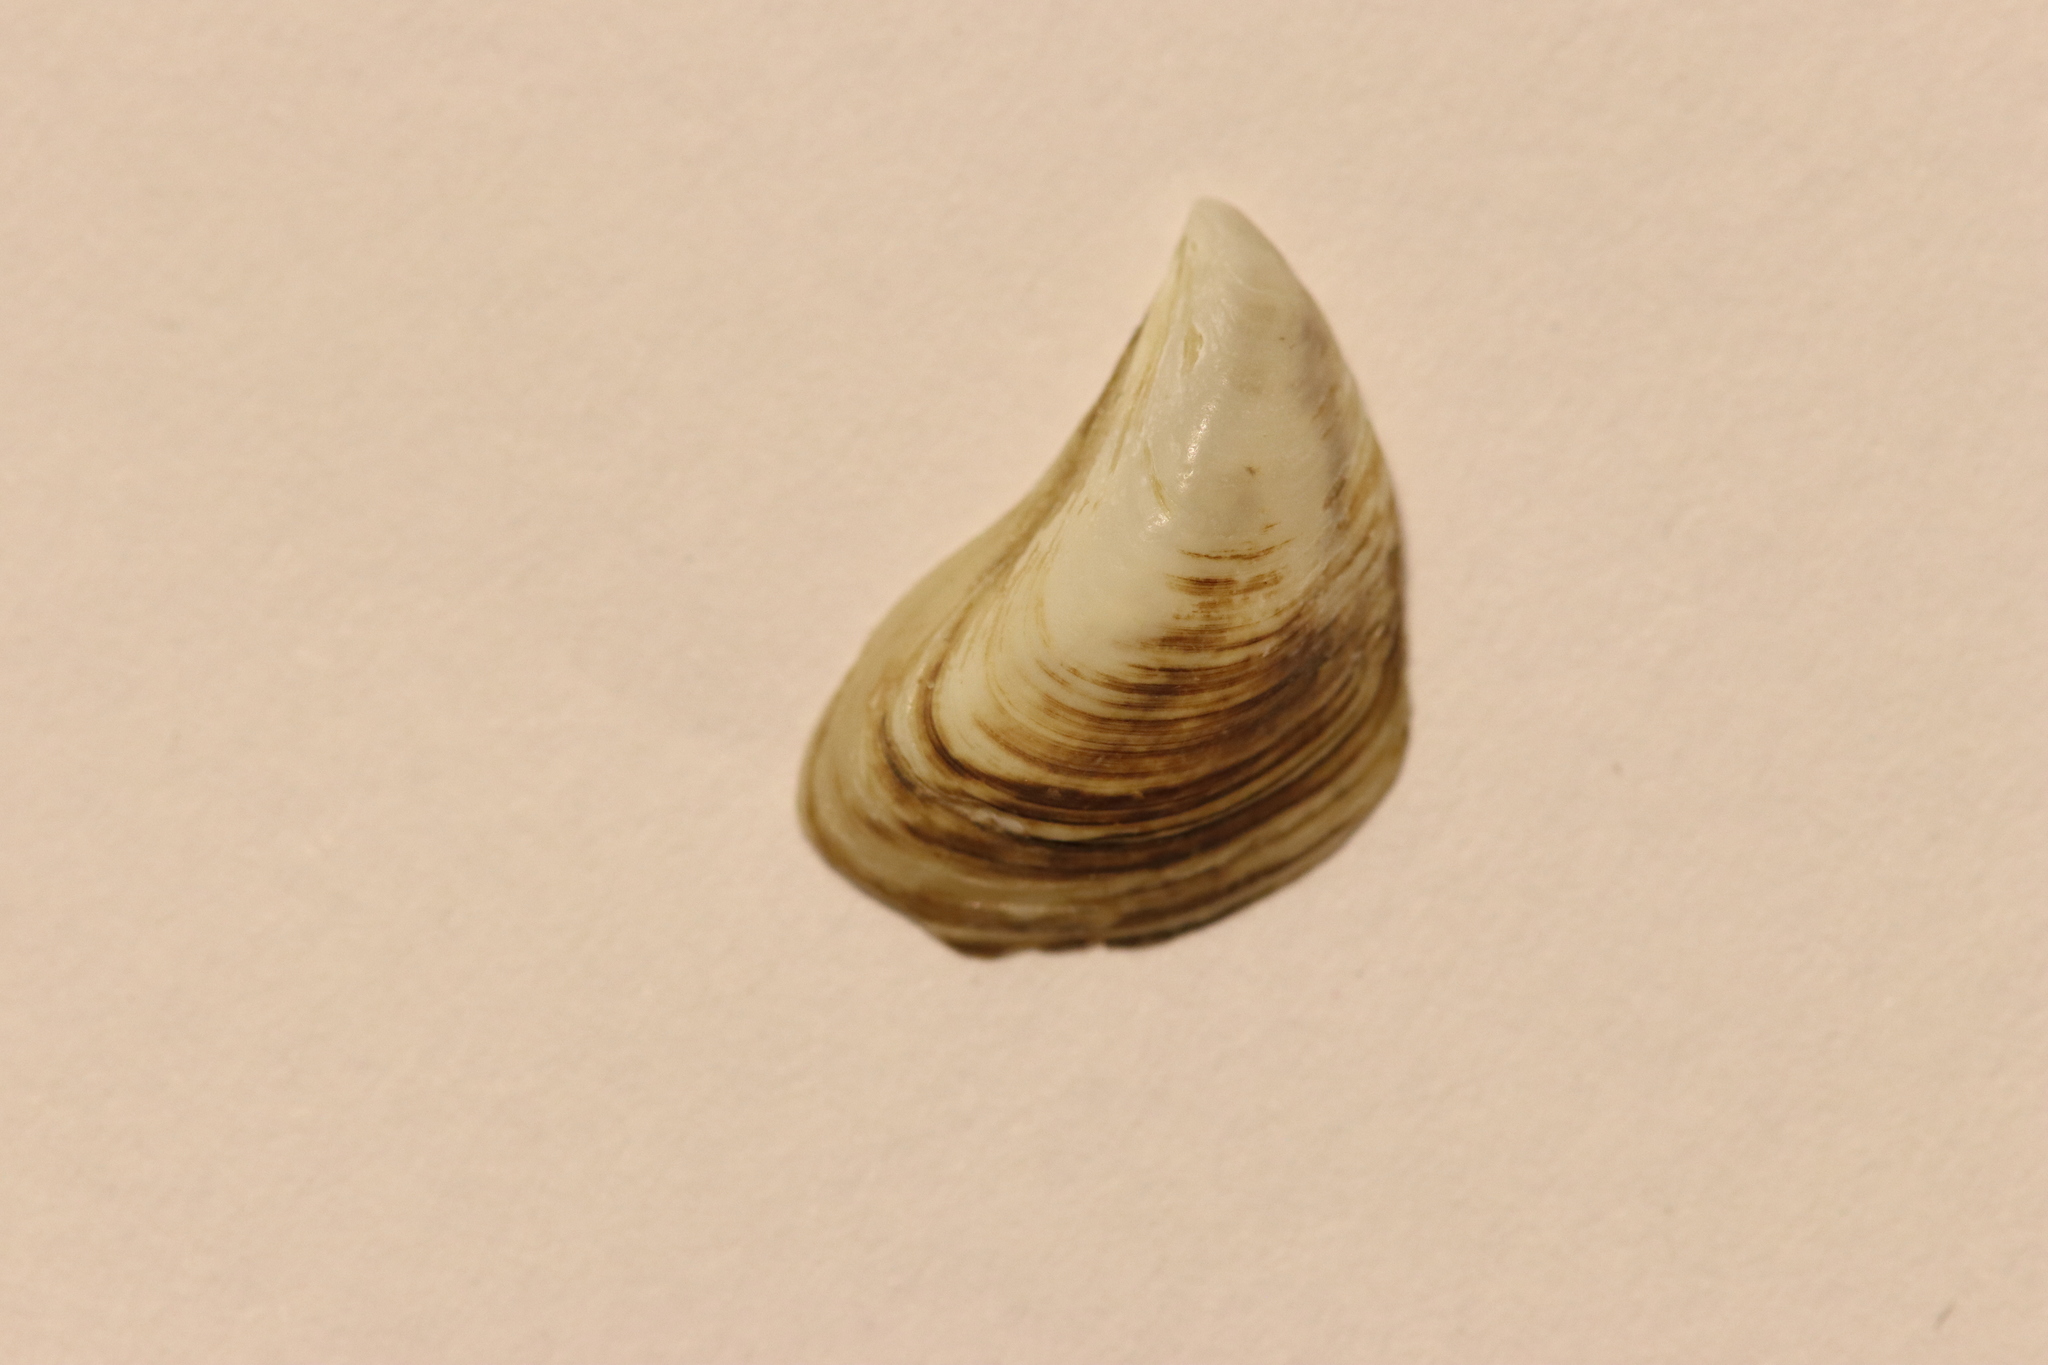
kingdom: Animalia
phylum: Mollusca
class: Bivalvia
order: Myida
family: Dreissenidae
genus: Dreissena
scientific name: Dreissena bugensis
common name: Quagga mussel
